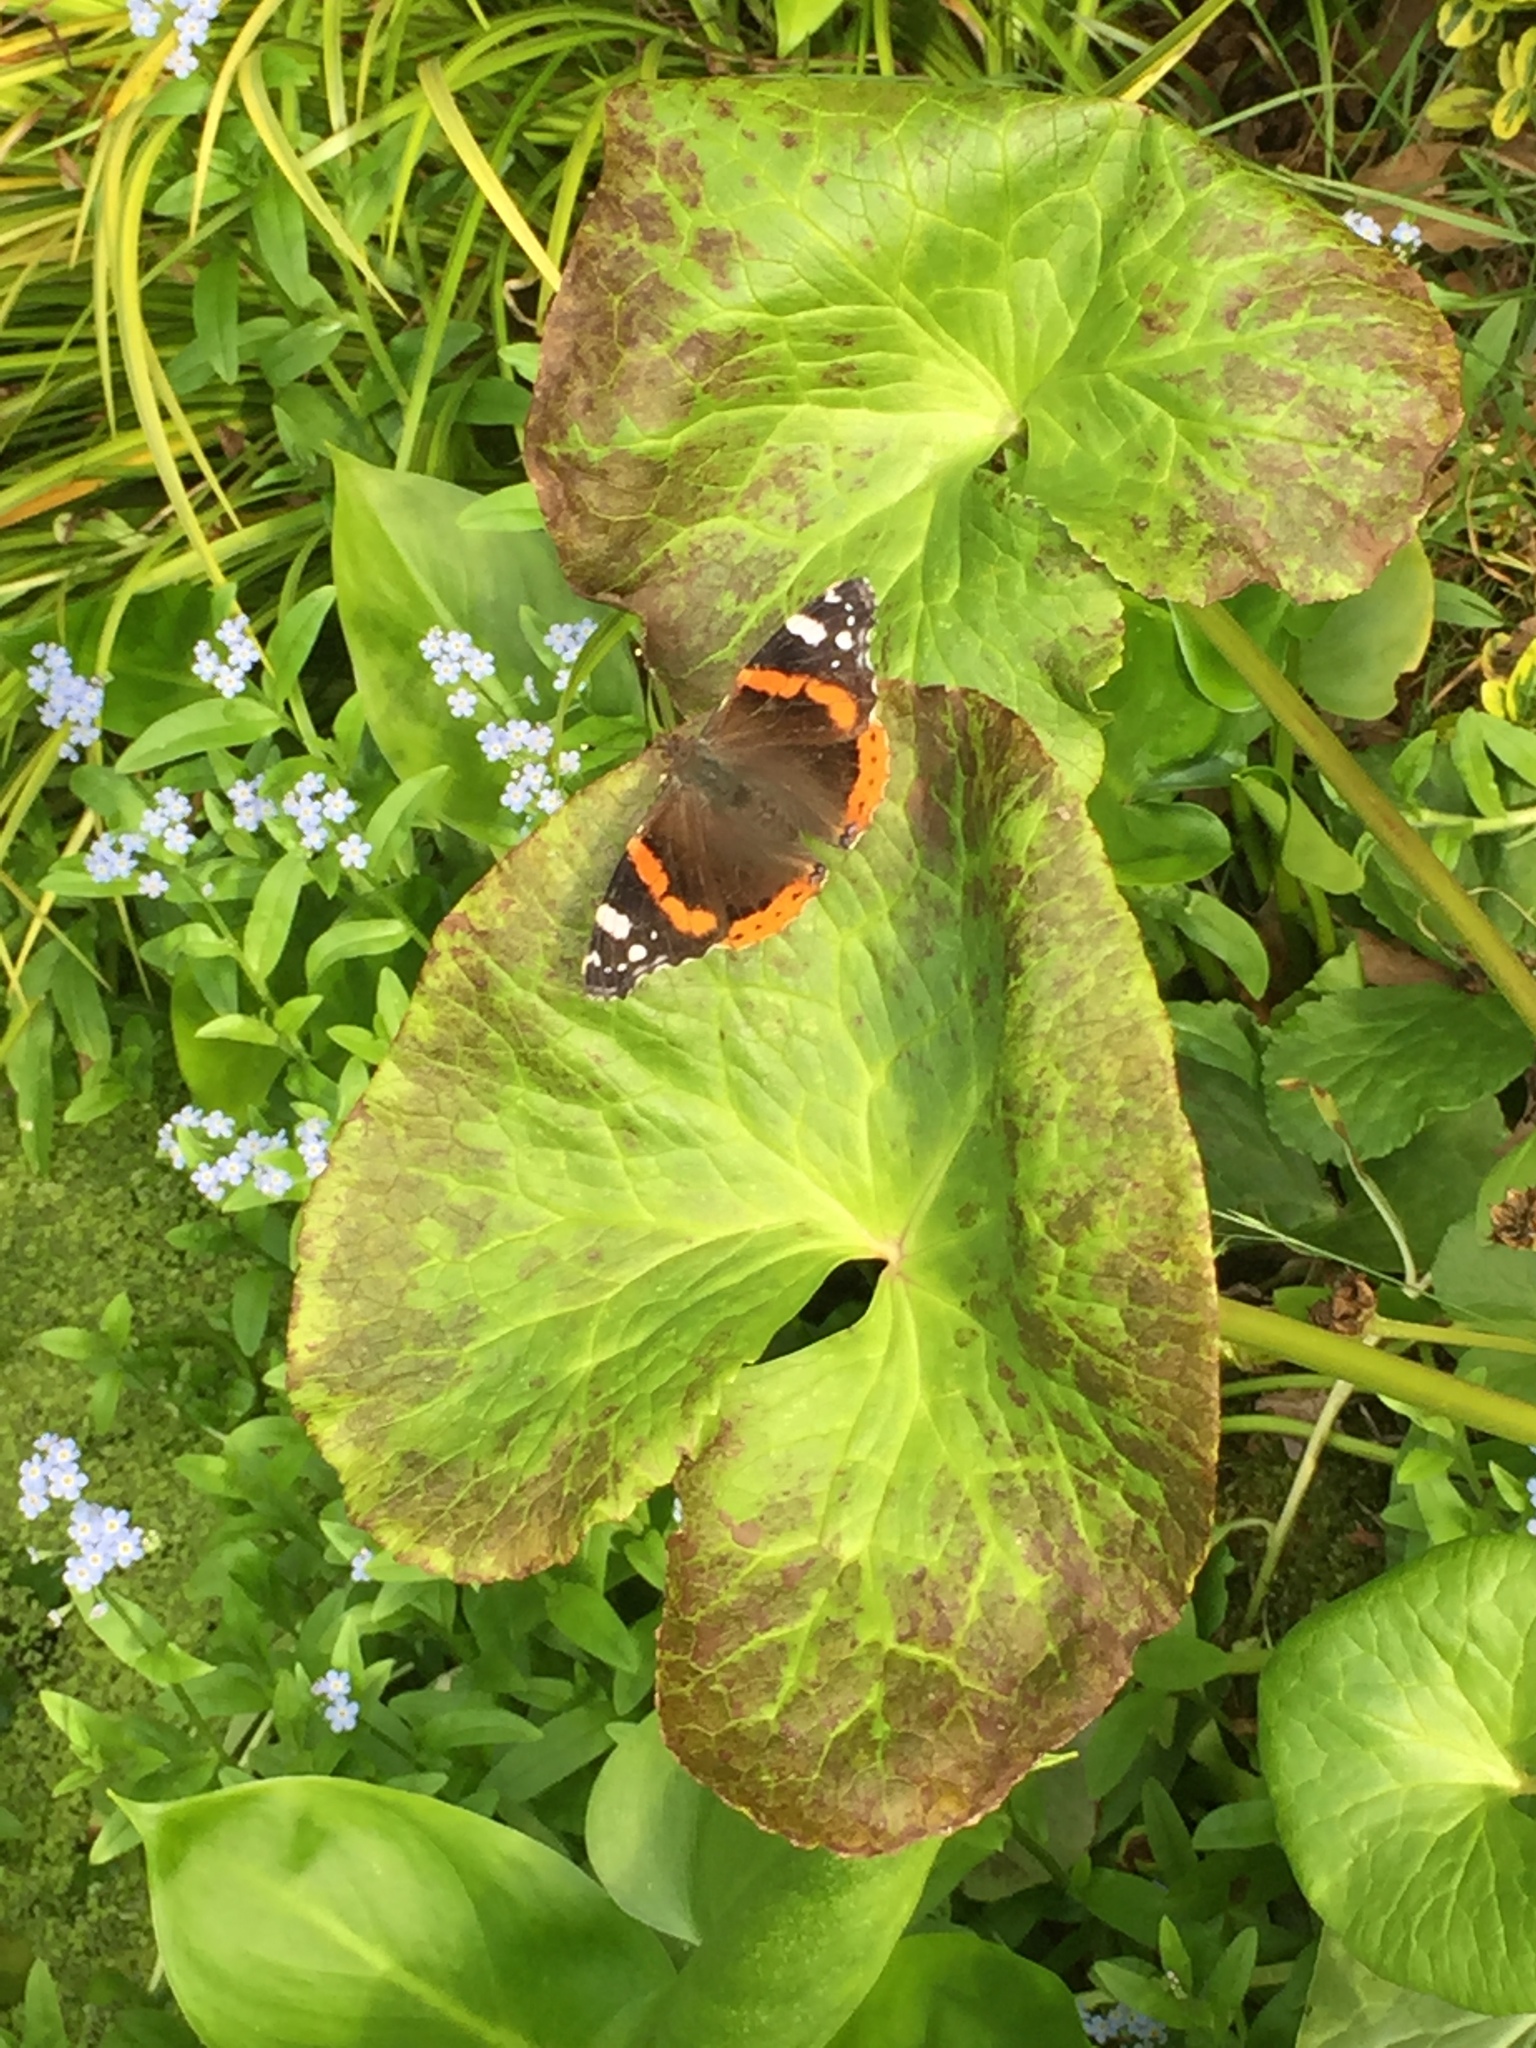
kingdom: Animalia
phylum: Arthropoda
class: Insecta
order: Lepidoptera
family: Nymphalidae
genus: Vanessa
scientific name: Vanessa atalanta
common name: Red admiral
